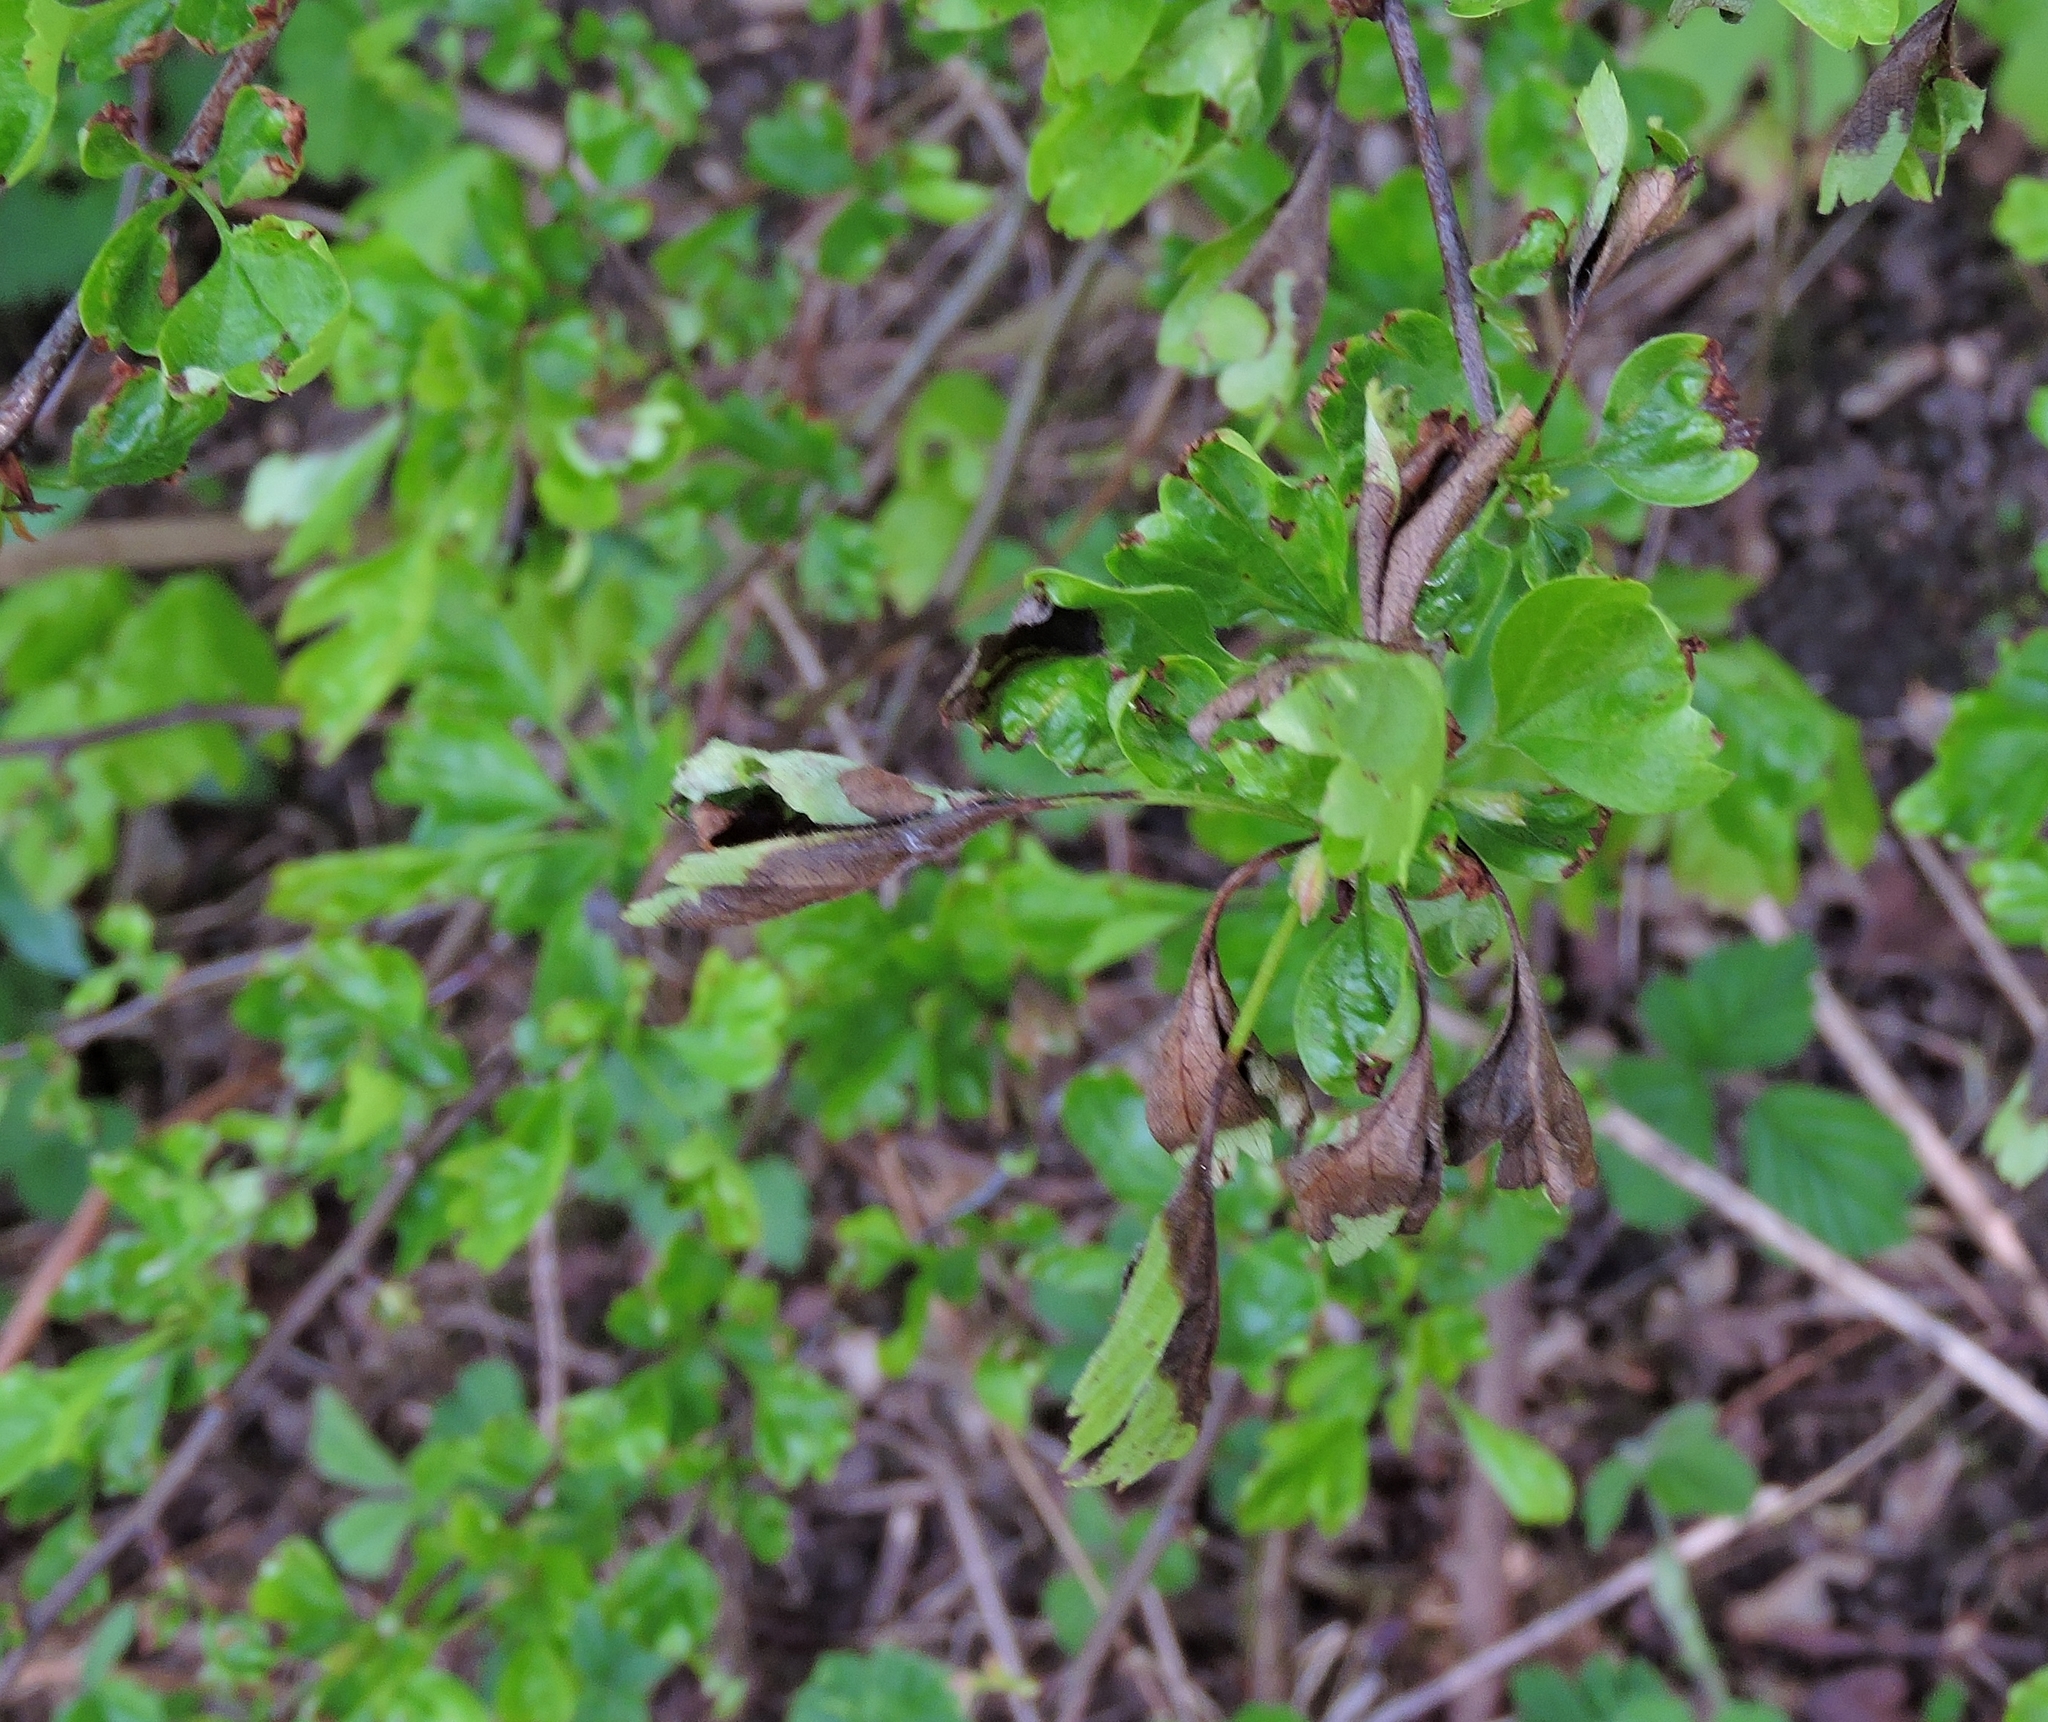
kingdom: Fungi
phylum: Ascomycota
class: Leotiomycetes
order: Helotiales
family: Sclerotiniaceae
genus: Monilinia
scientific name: Monilinia johnsonii
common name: Haw goblet
